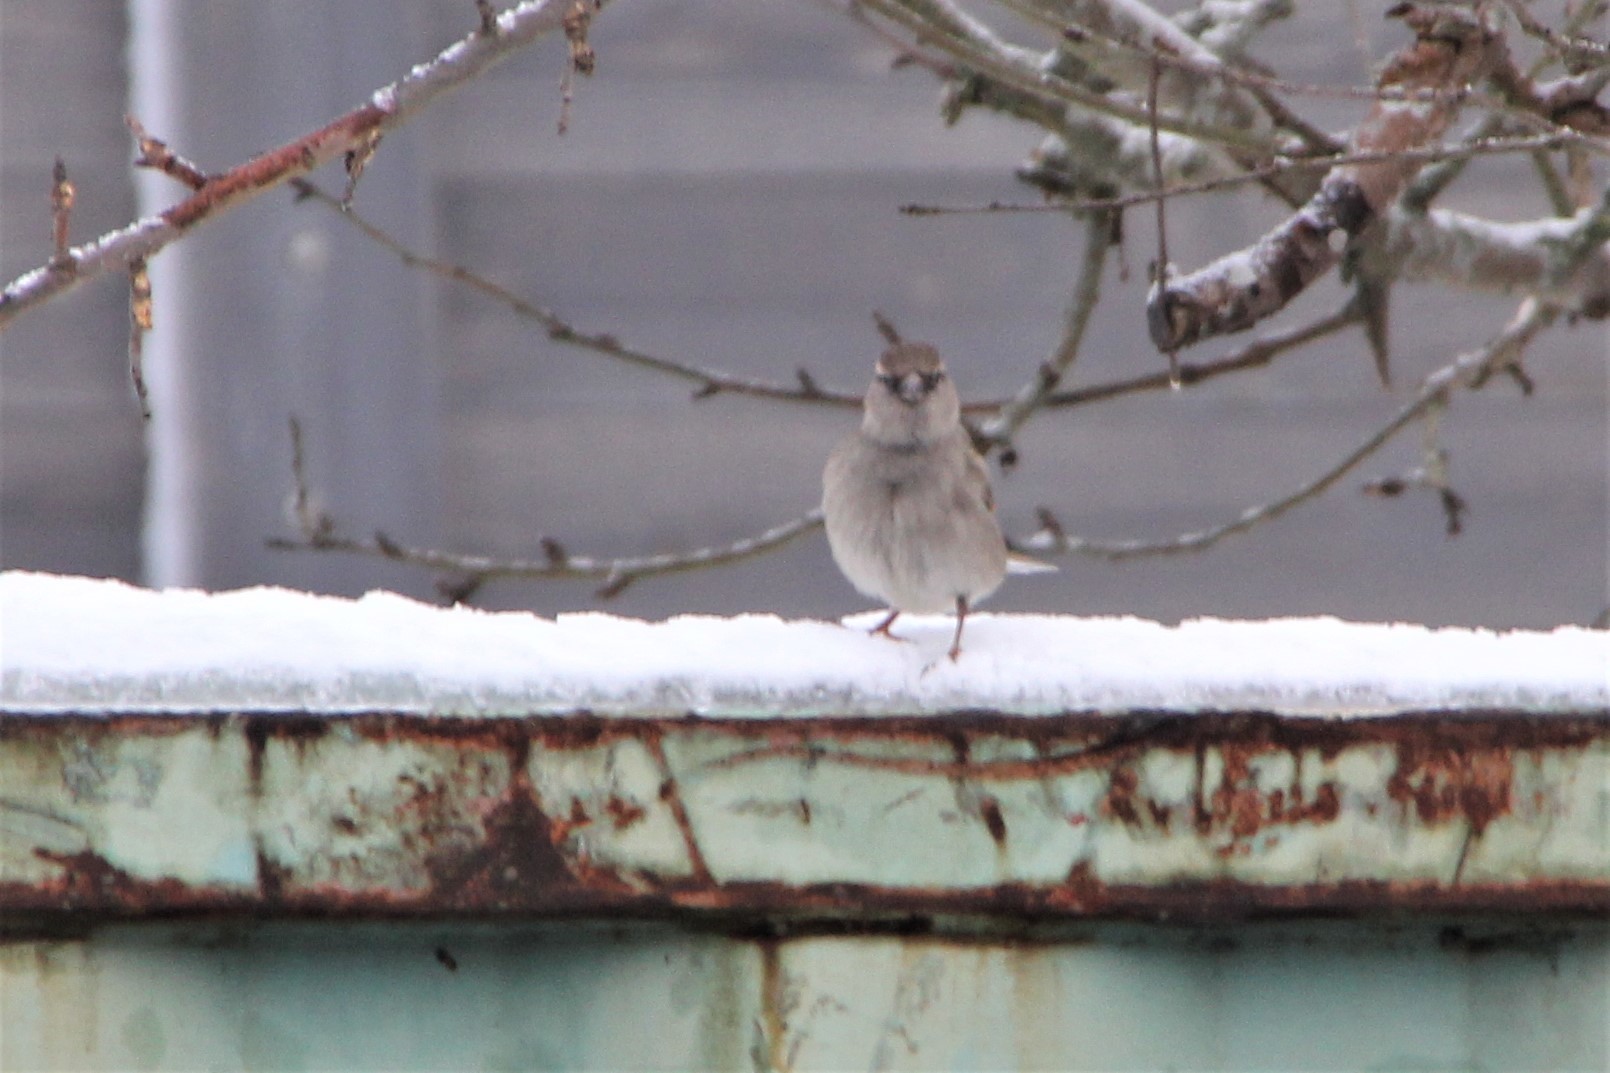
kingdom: Animalia
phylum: Chordata
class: Aves
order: Passeriformes
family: Passeridae
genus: Passer
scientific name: Passer domesticus
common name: House sparrow
